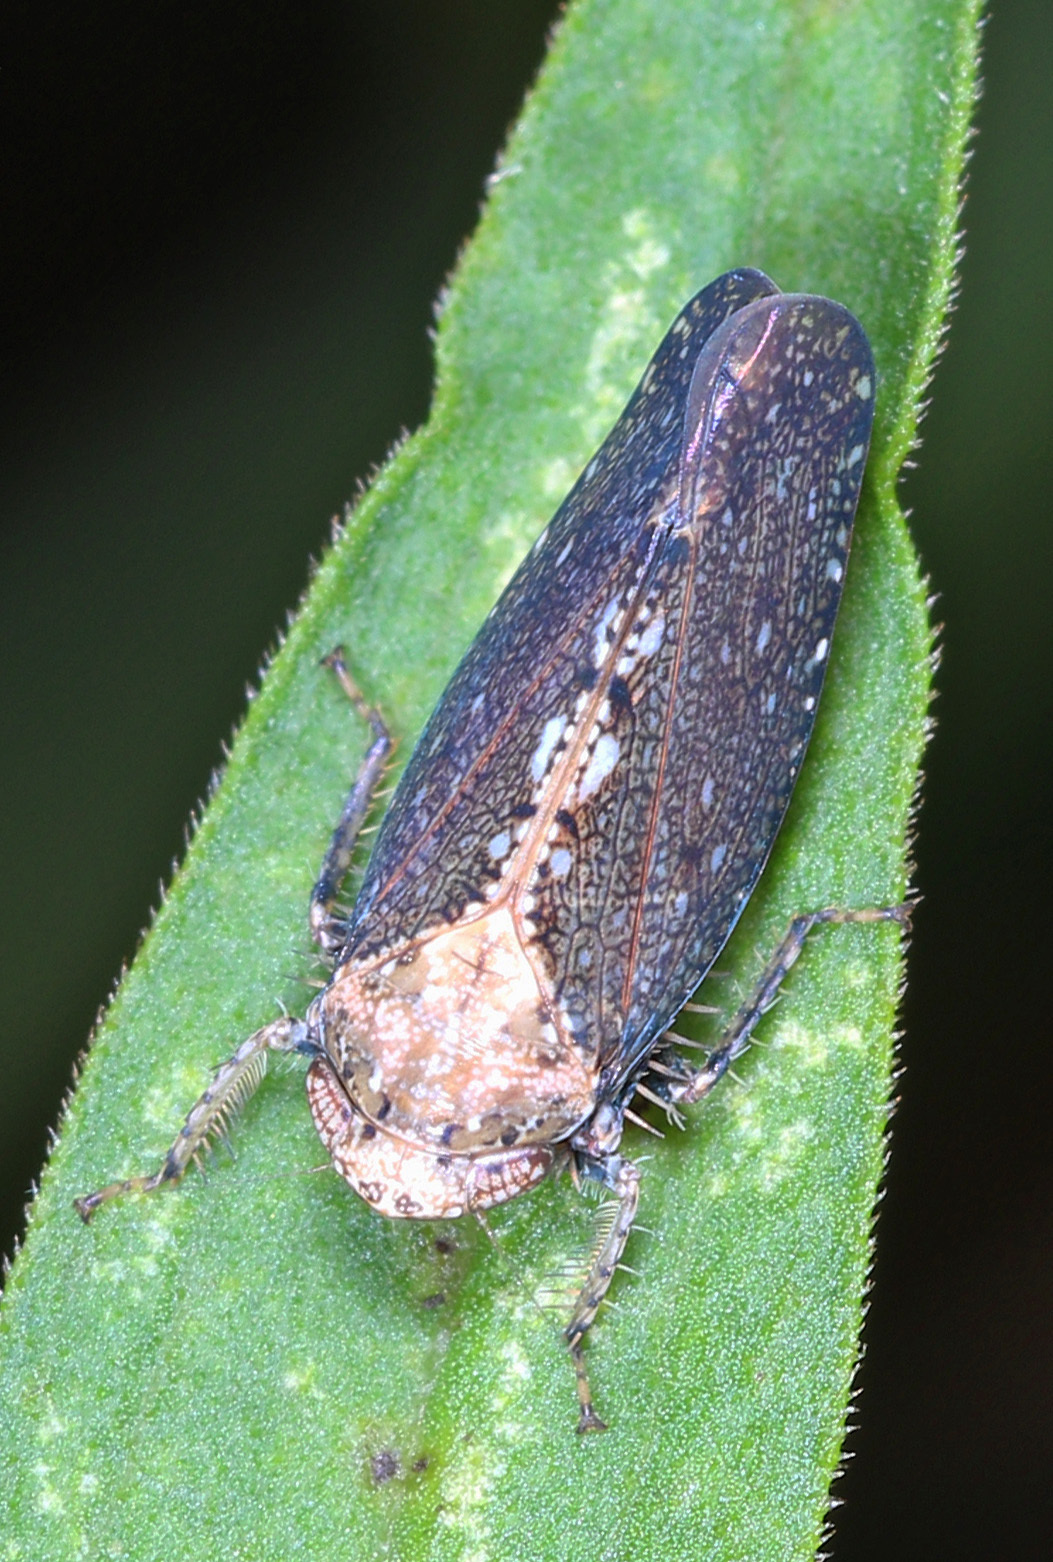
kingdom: Animalia
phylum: Arthropoda
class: Insecta
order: Hemiptera
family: Cicadellidae
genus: Excultanus
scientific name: Excultanus excultus
